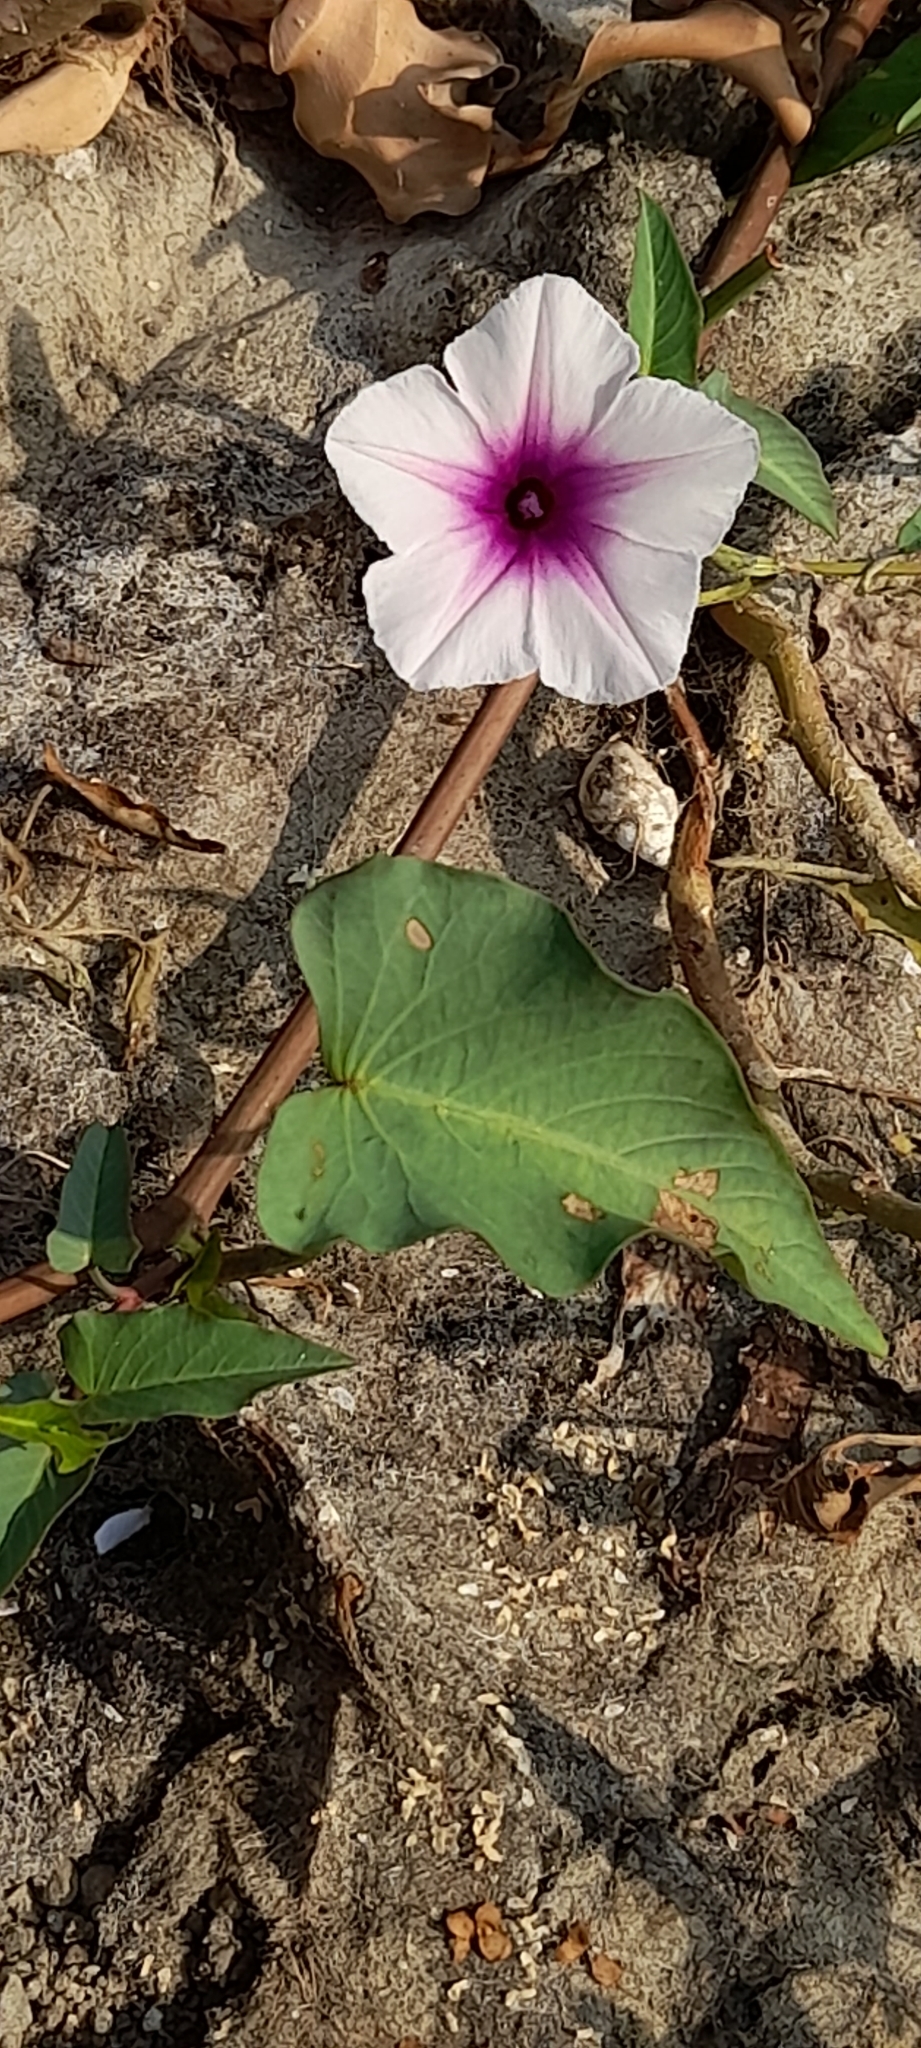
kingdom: Plantae
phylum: Tracheophyta
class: Magnoliopsida
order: Solanales
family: Convolvulaceae
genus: Ipomoea
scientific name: Ipomoea aquatica
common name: Swamp morning-glory
